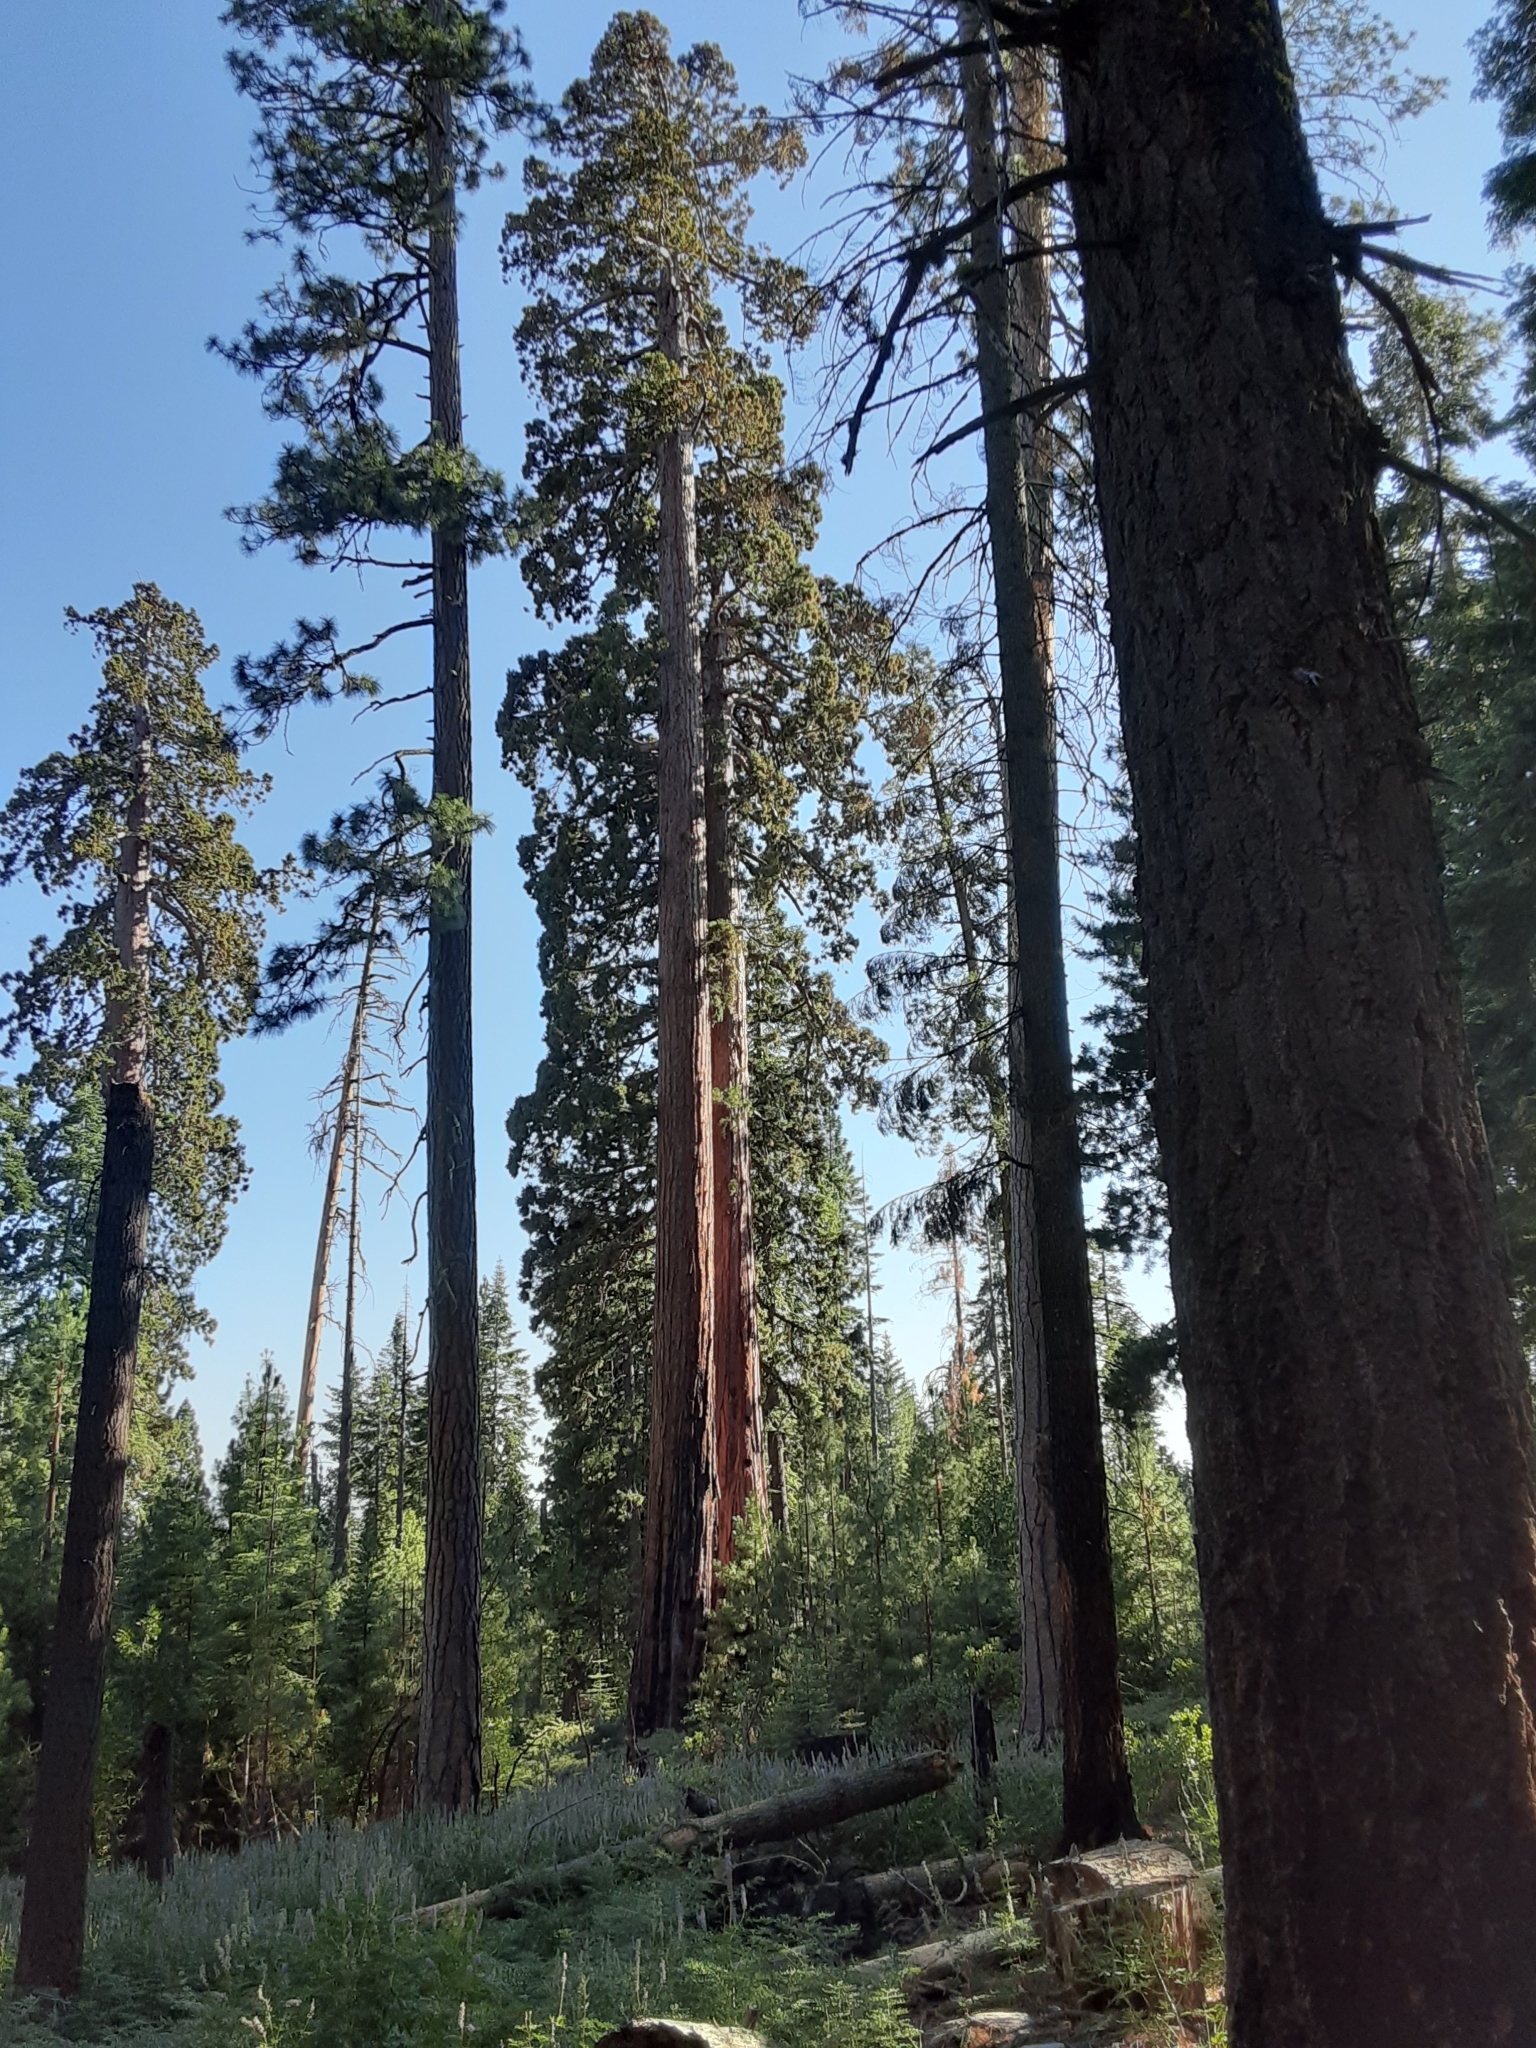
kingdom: Plantae
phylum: Tracheophyta
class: Pinopsida
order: Pinales
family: Cupressaceae
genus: Sequoiadendron
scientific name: Sequoiadendron giganteum
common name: Wellingtonia
